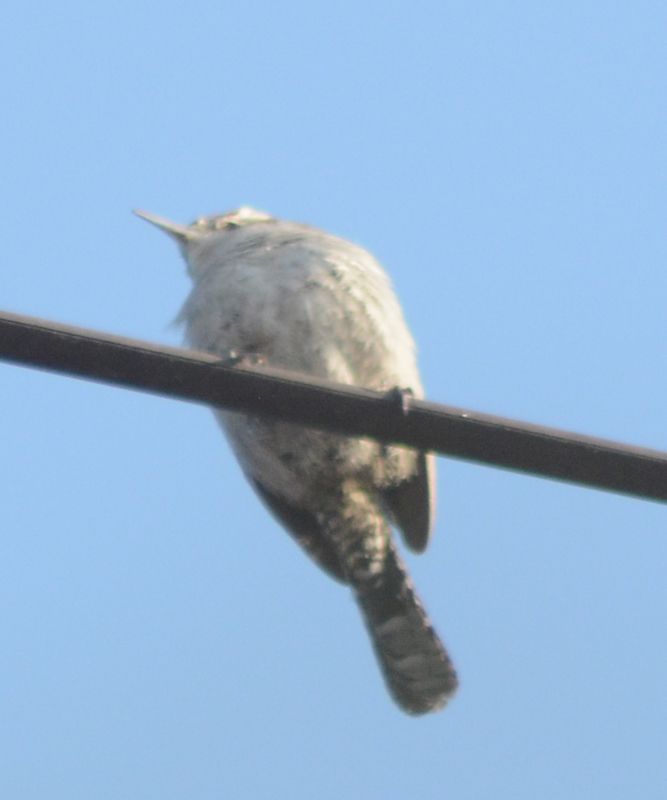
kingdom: Animalia
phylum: Chordata
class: Aves
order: Passeriformes
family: Troglodytidae
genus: Thryomanes
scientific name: Thryomanes bewickii
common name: Bewick's wren
